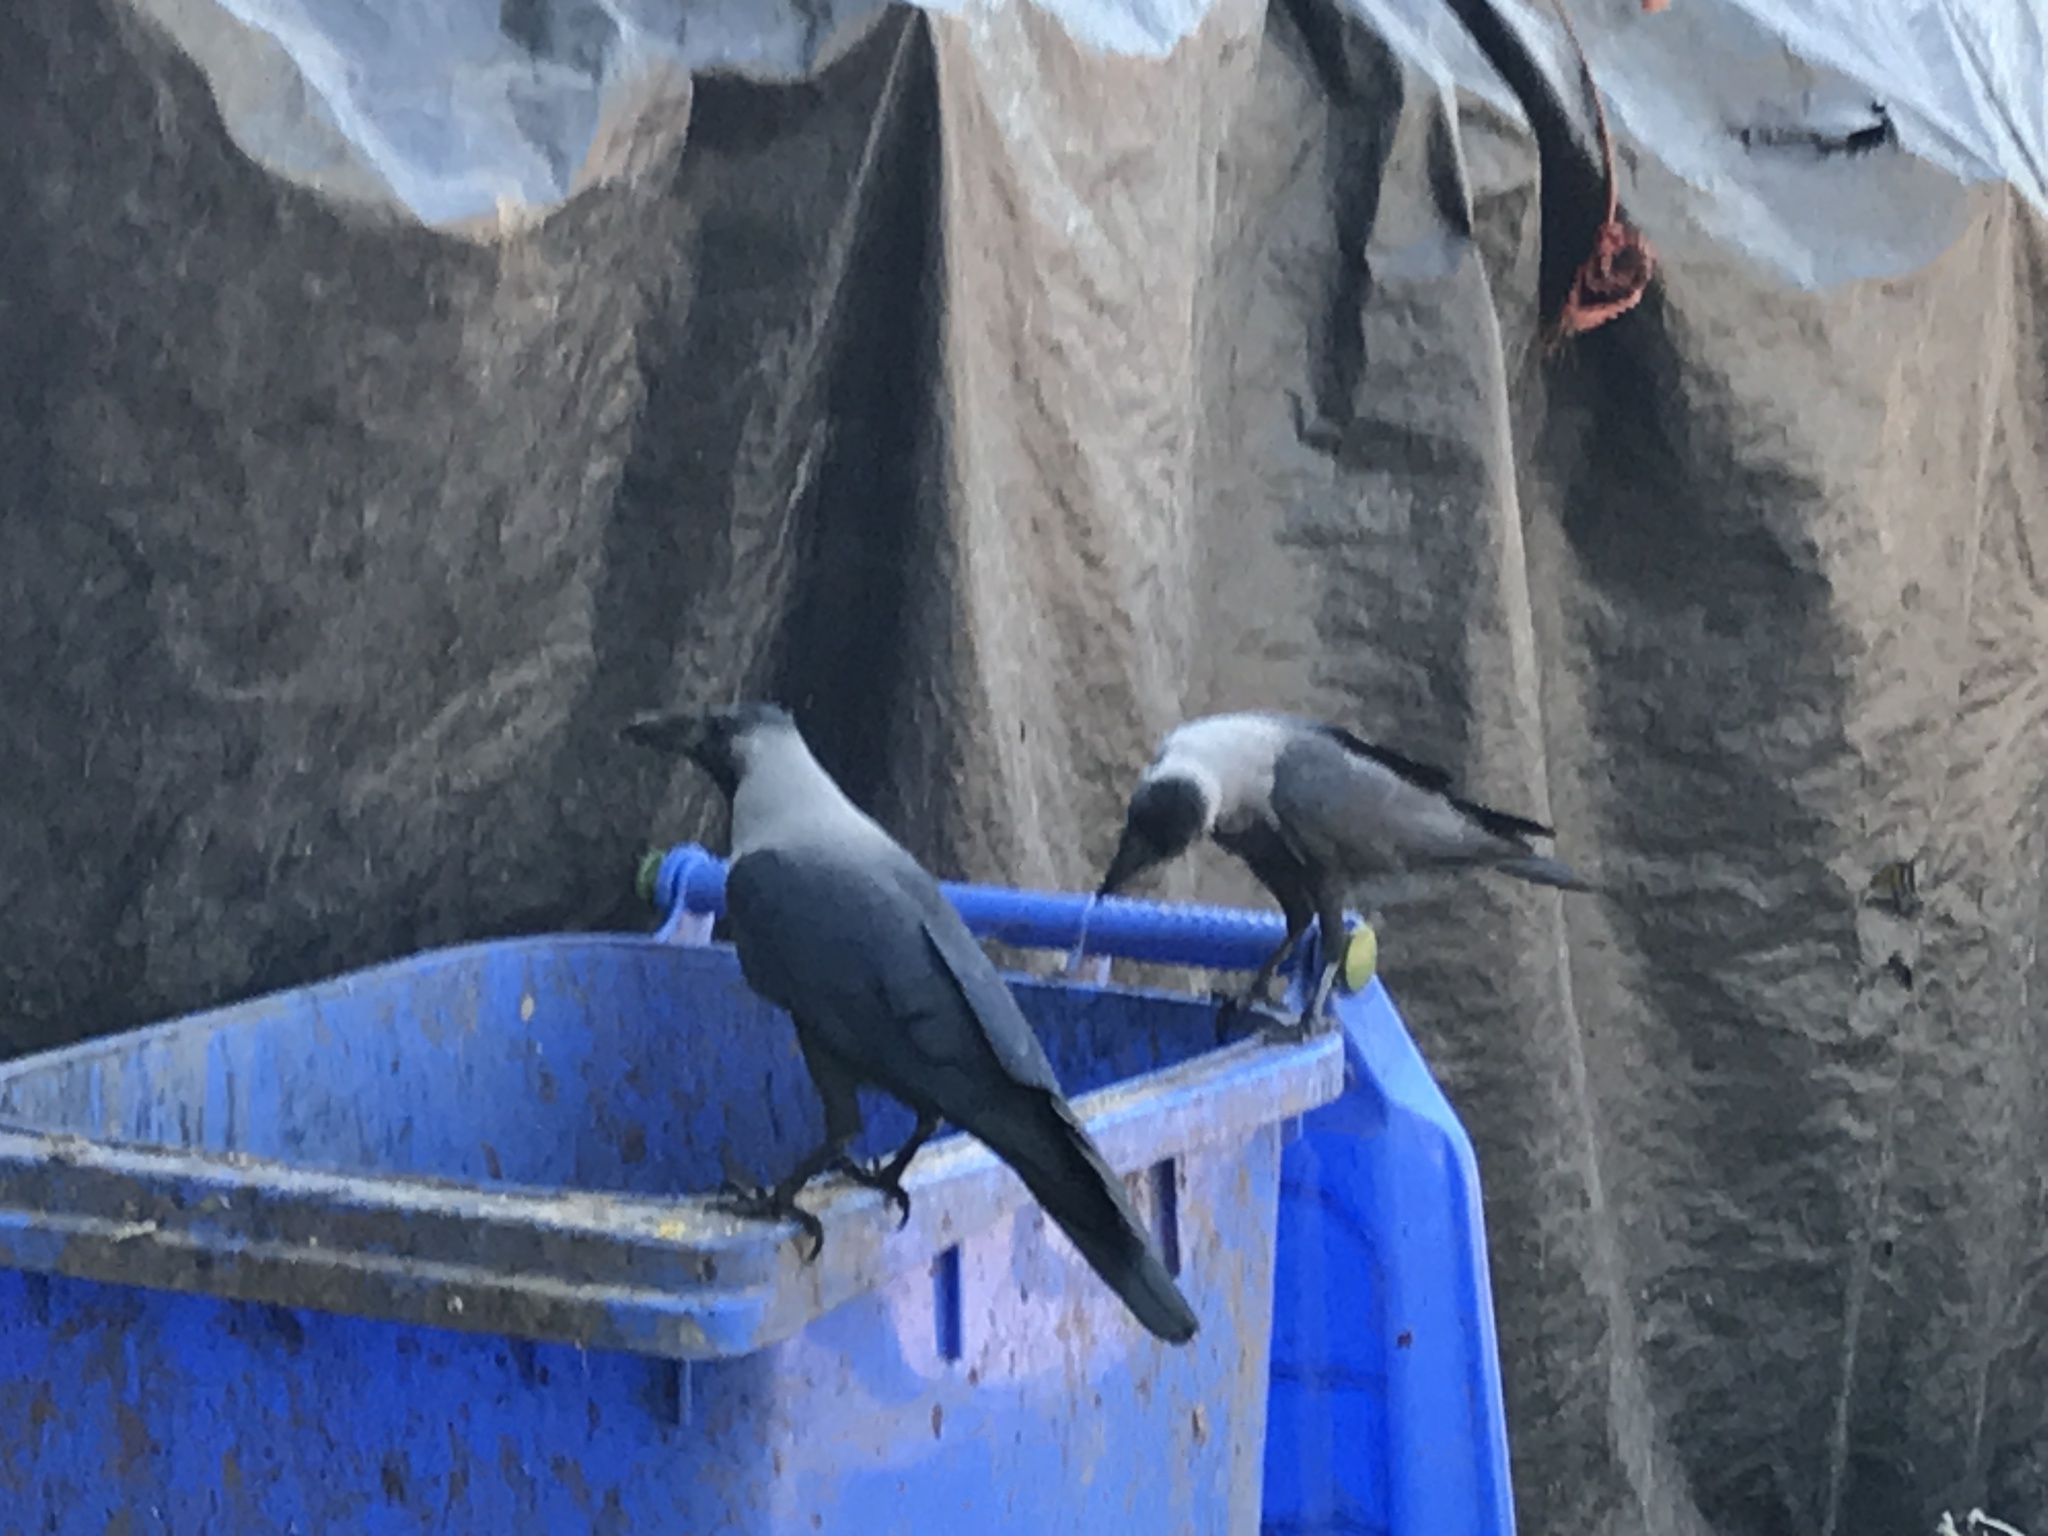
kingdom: Animalia
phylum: Chordata
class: Aves
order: Passeriformes
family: Corvidae
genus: Corvus
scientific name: Corvus splendens
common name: House crow
